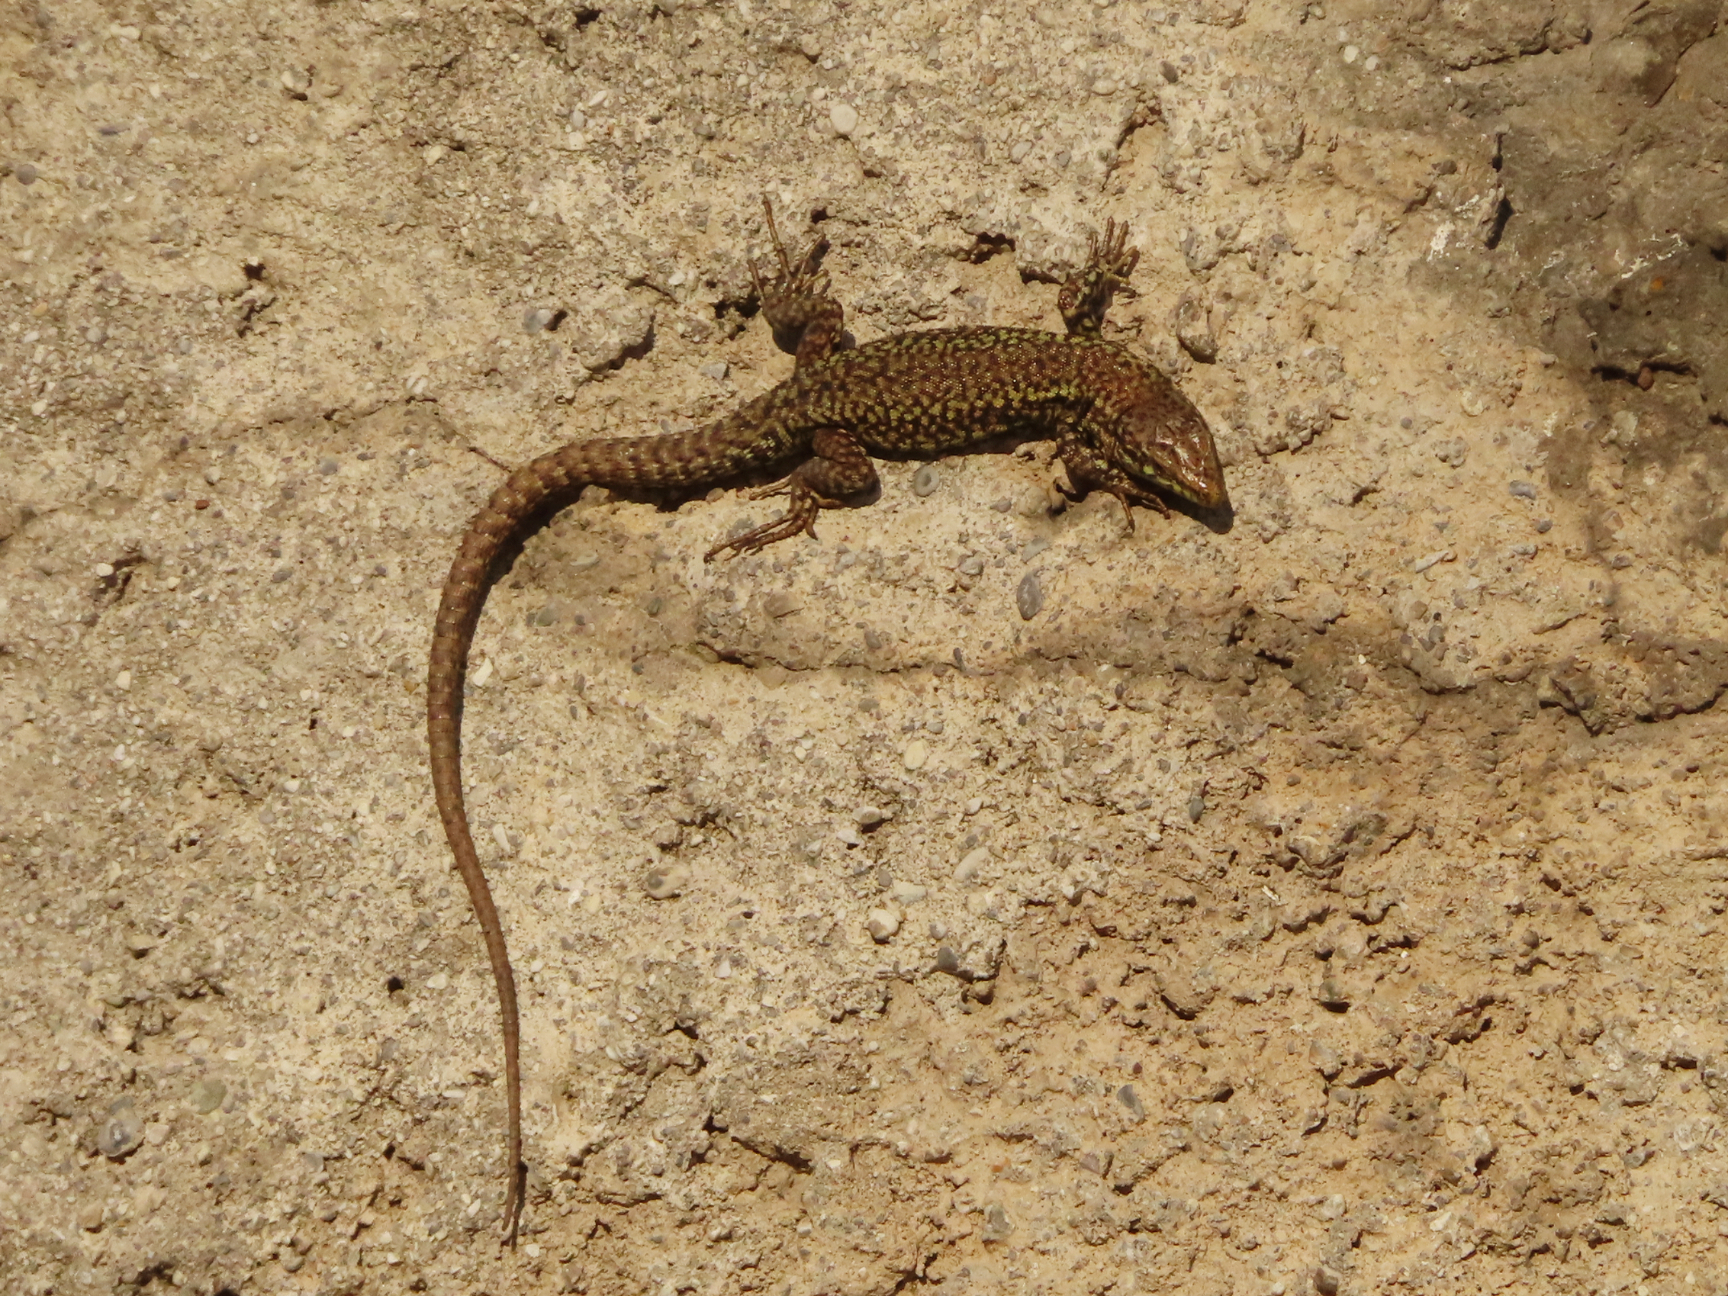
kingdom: Animalia
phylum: Chordata
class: Squamata
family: Lacertidae
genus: Podarcis
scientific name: Podarcis muralis
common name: Common wall lizard
